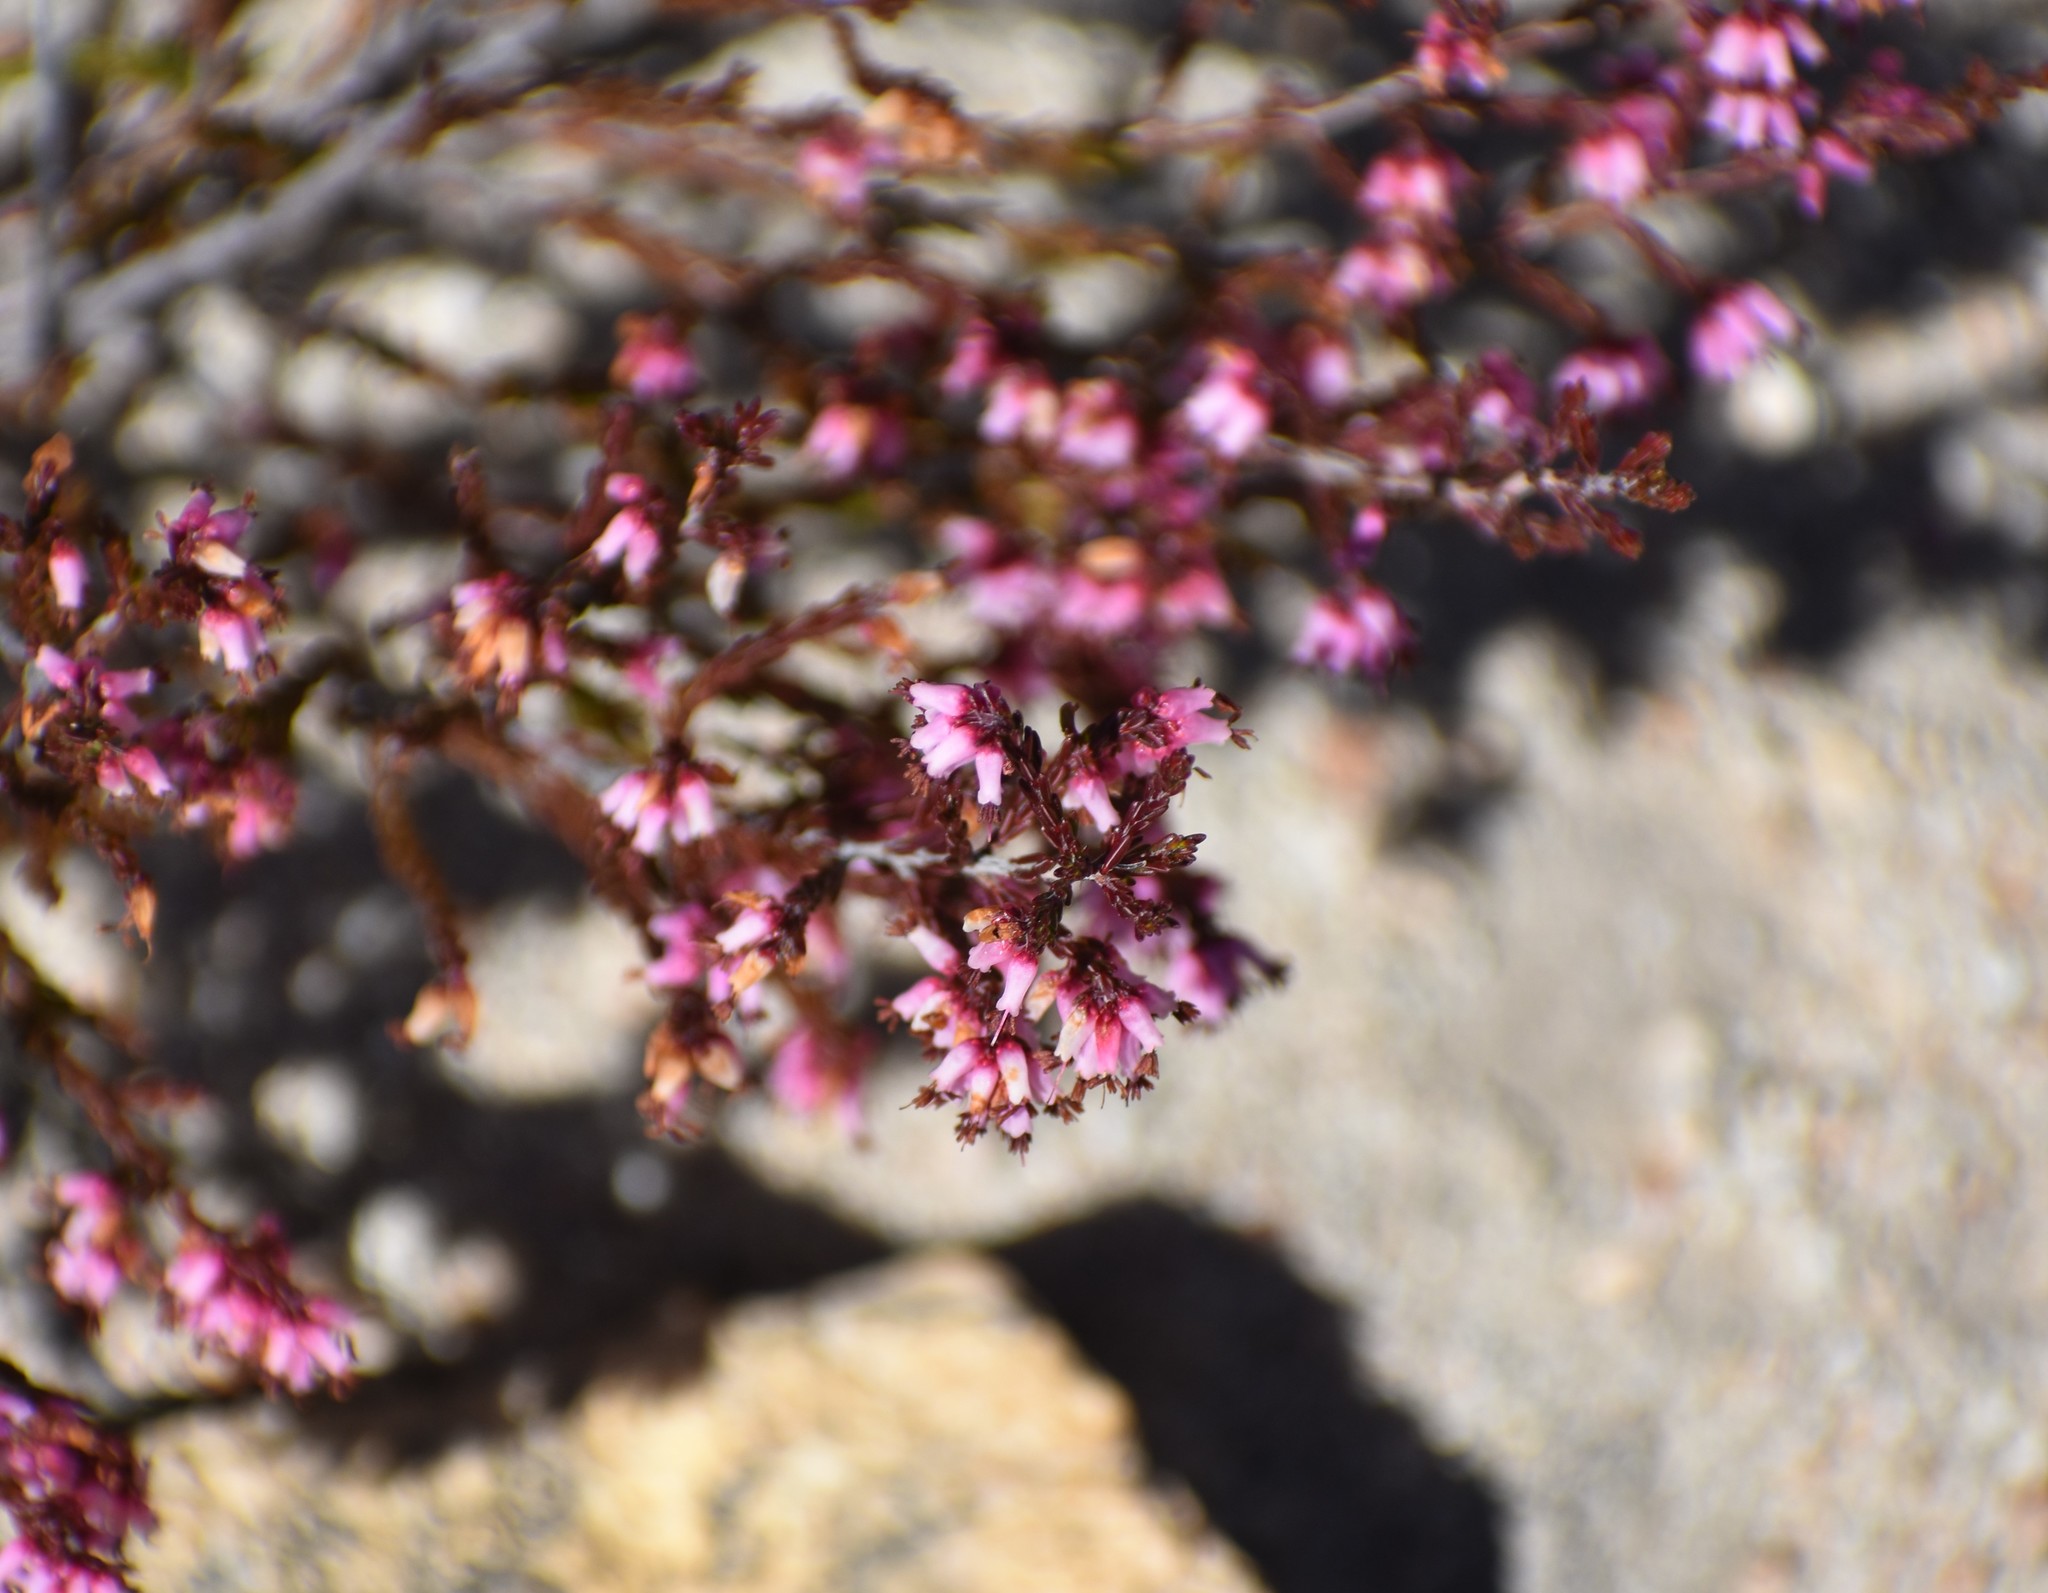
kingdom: Plantae
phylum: Tracheophyta
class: Magnoliopsida
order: Ericales
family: Ericaceae
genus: Erica
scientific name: Erica rosacea
